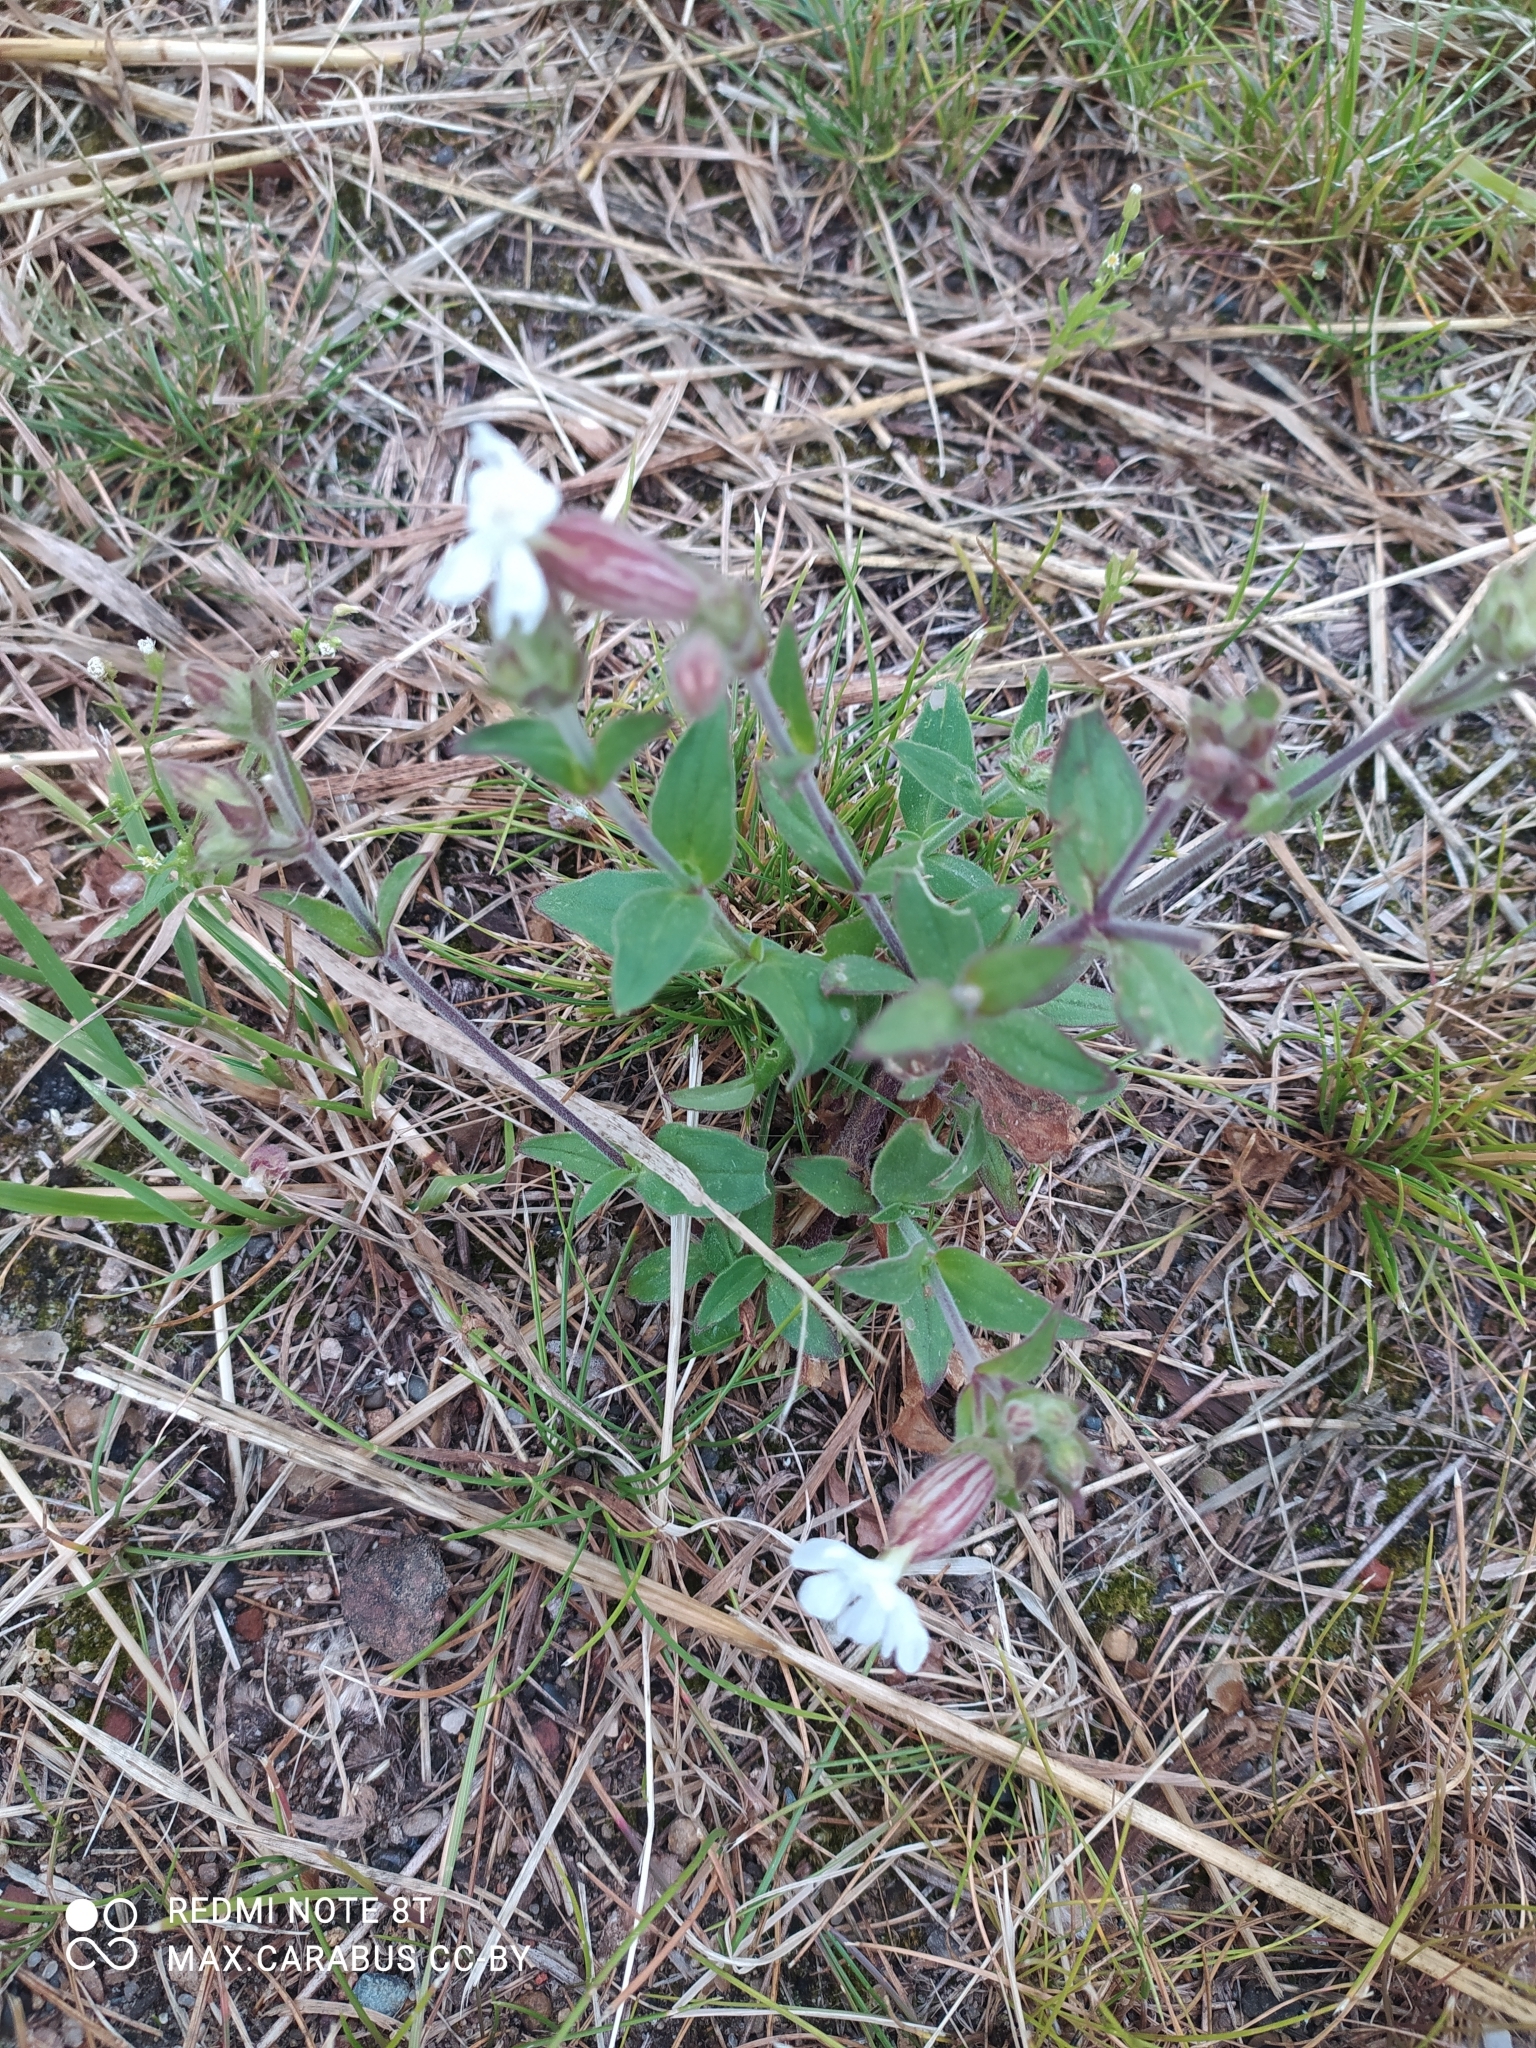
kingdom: Plantae
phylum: Tracheophyta
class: Magnoliopsida
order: Caryophyllales
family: Caryophyllaceae
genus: Silene
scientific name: Silene latifolia
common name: White campion
